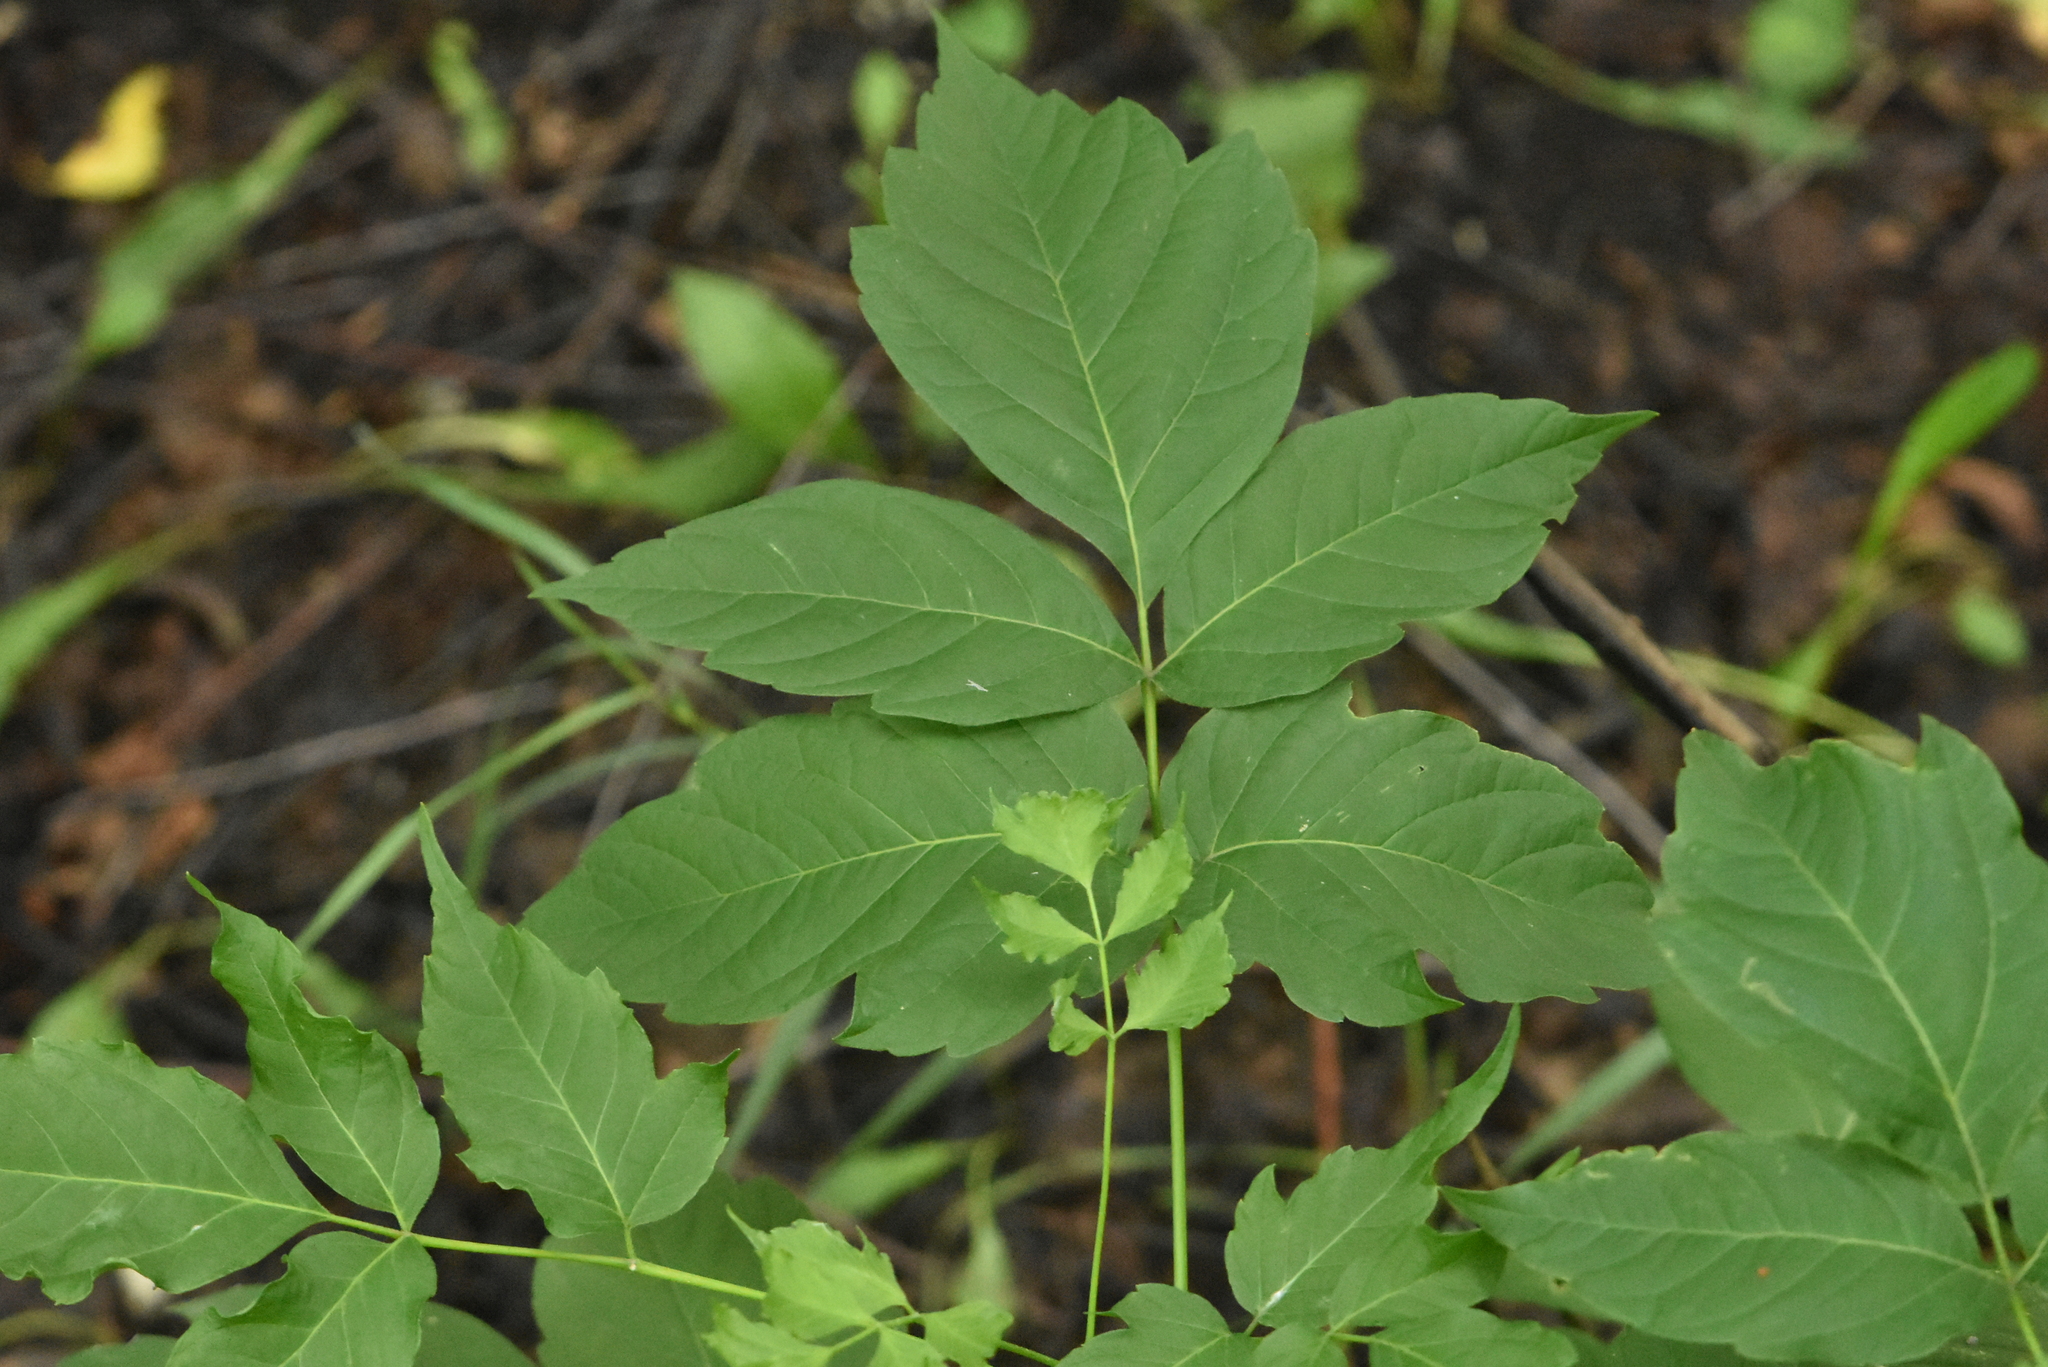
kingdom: Plantae
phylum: Tracheophyta
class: Magnoliopsida
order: Sapindales
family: Sapindaceae
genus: Acer
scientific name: Acer negundo
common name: Ashleaf maple
